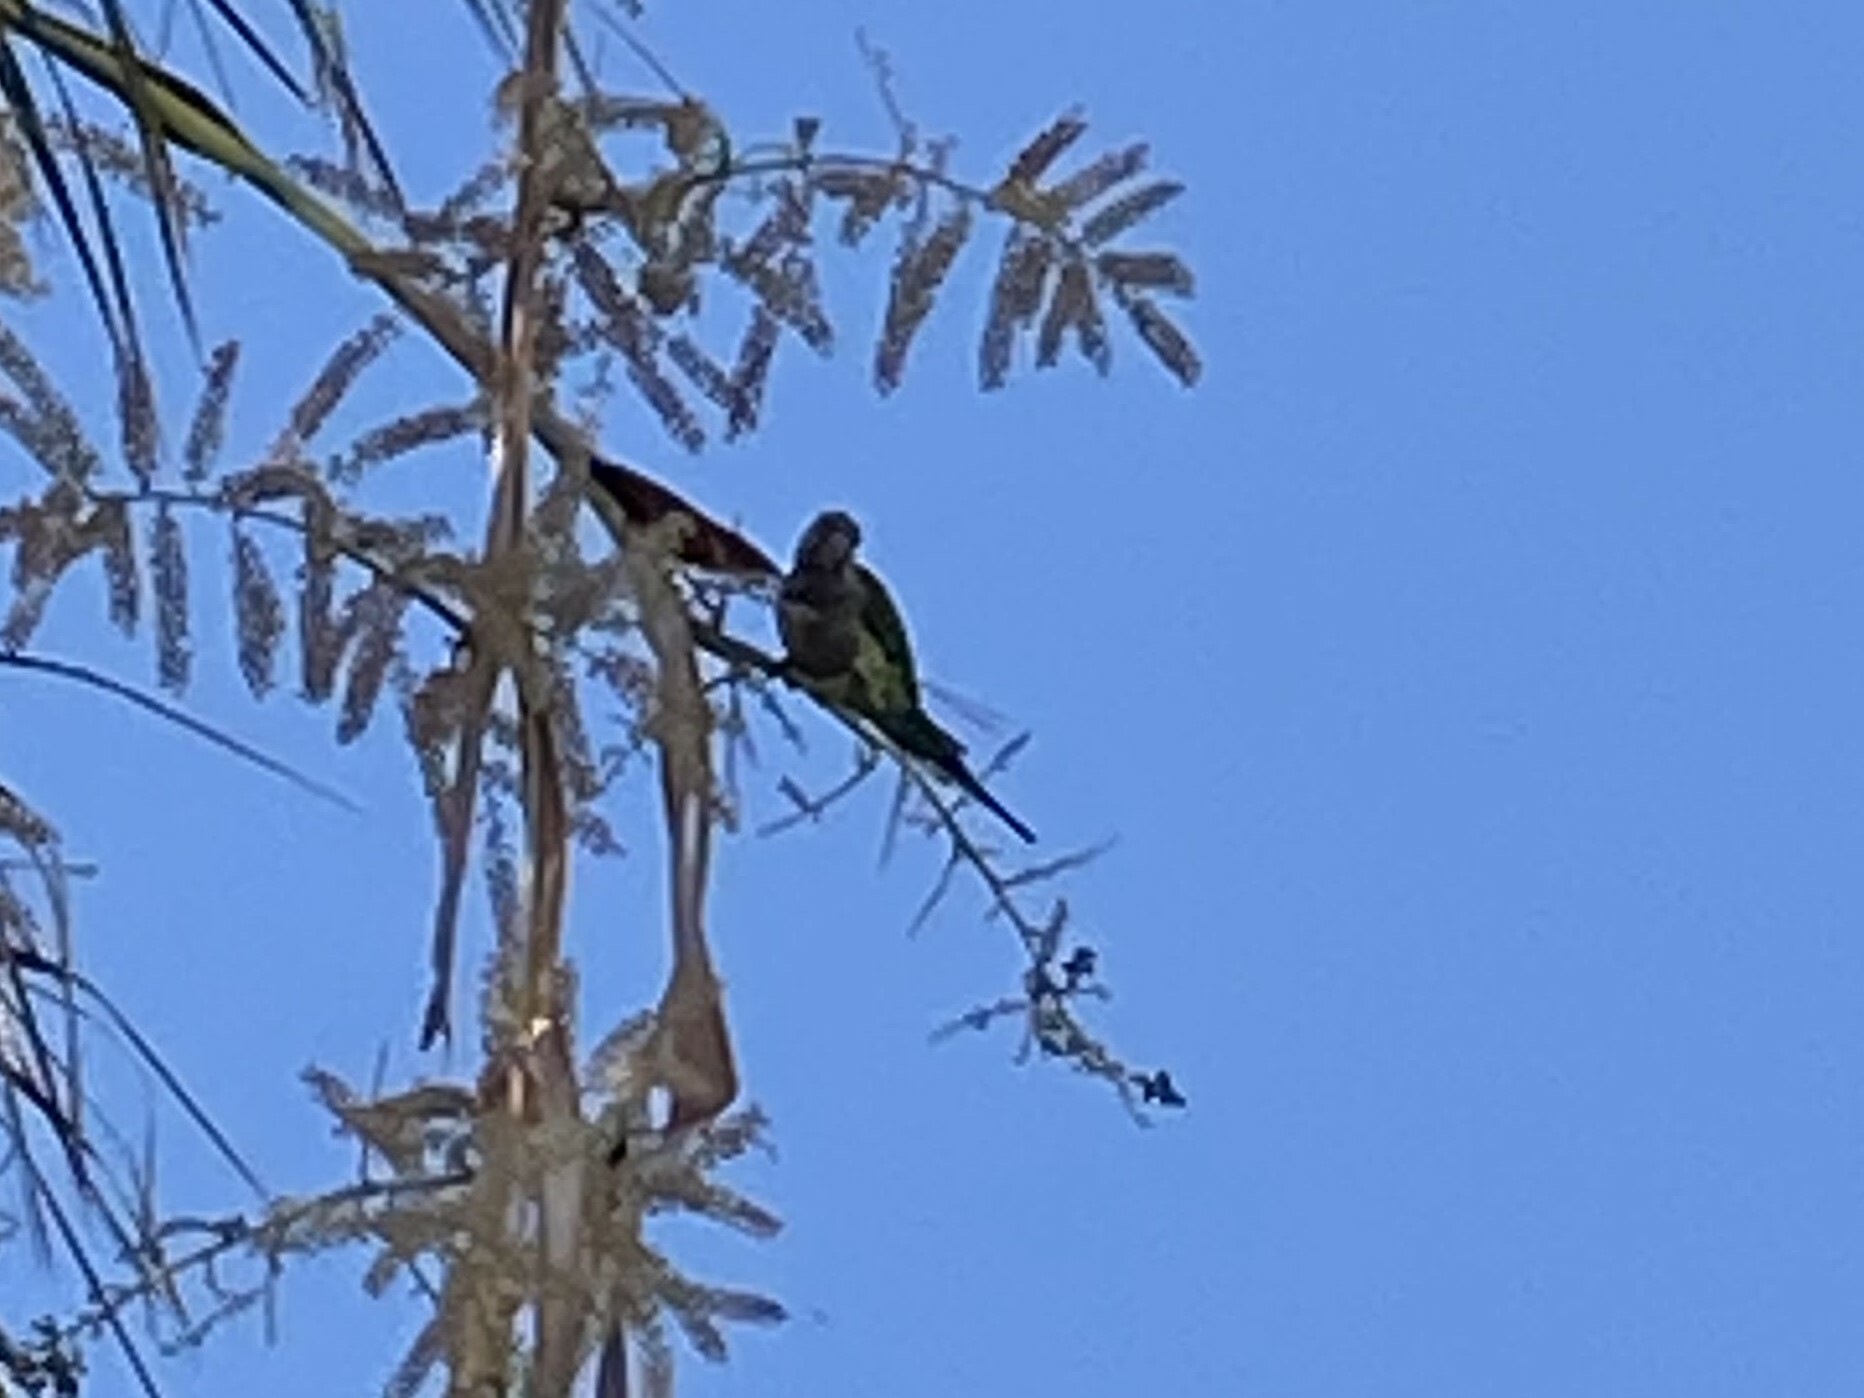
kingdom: Animalia
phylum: Chordata
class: Aves
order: Psittaciformes
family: Psittacidae
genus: Myiopsitta
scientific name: Myiopsitta monachus
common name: Monk parakeet
